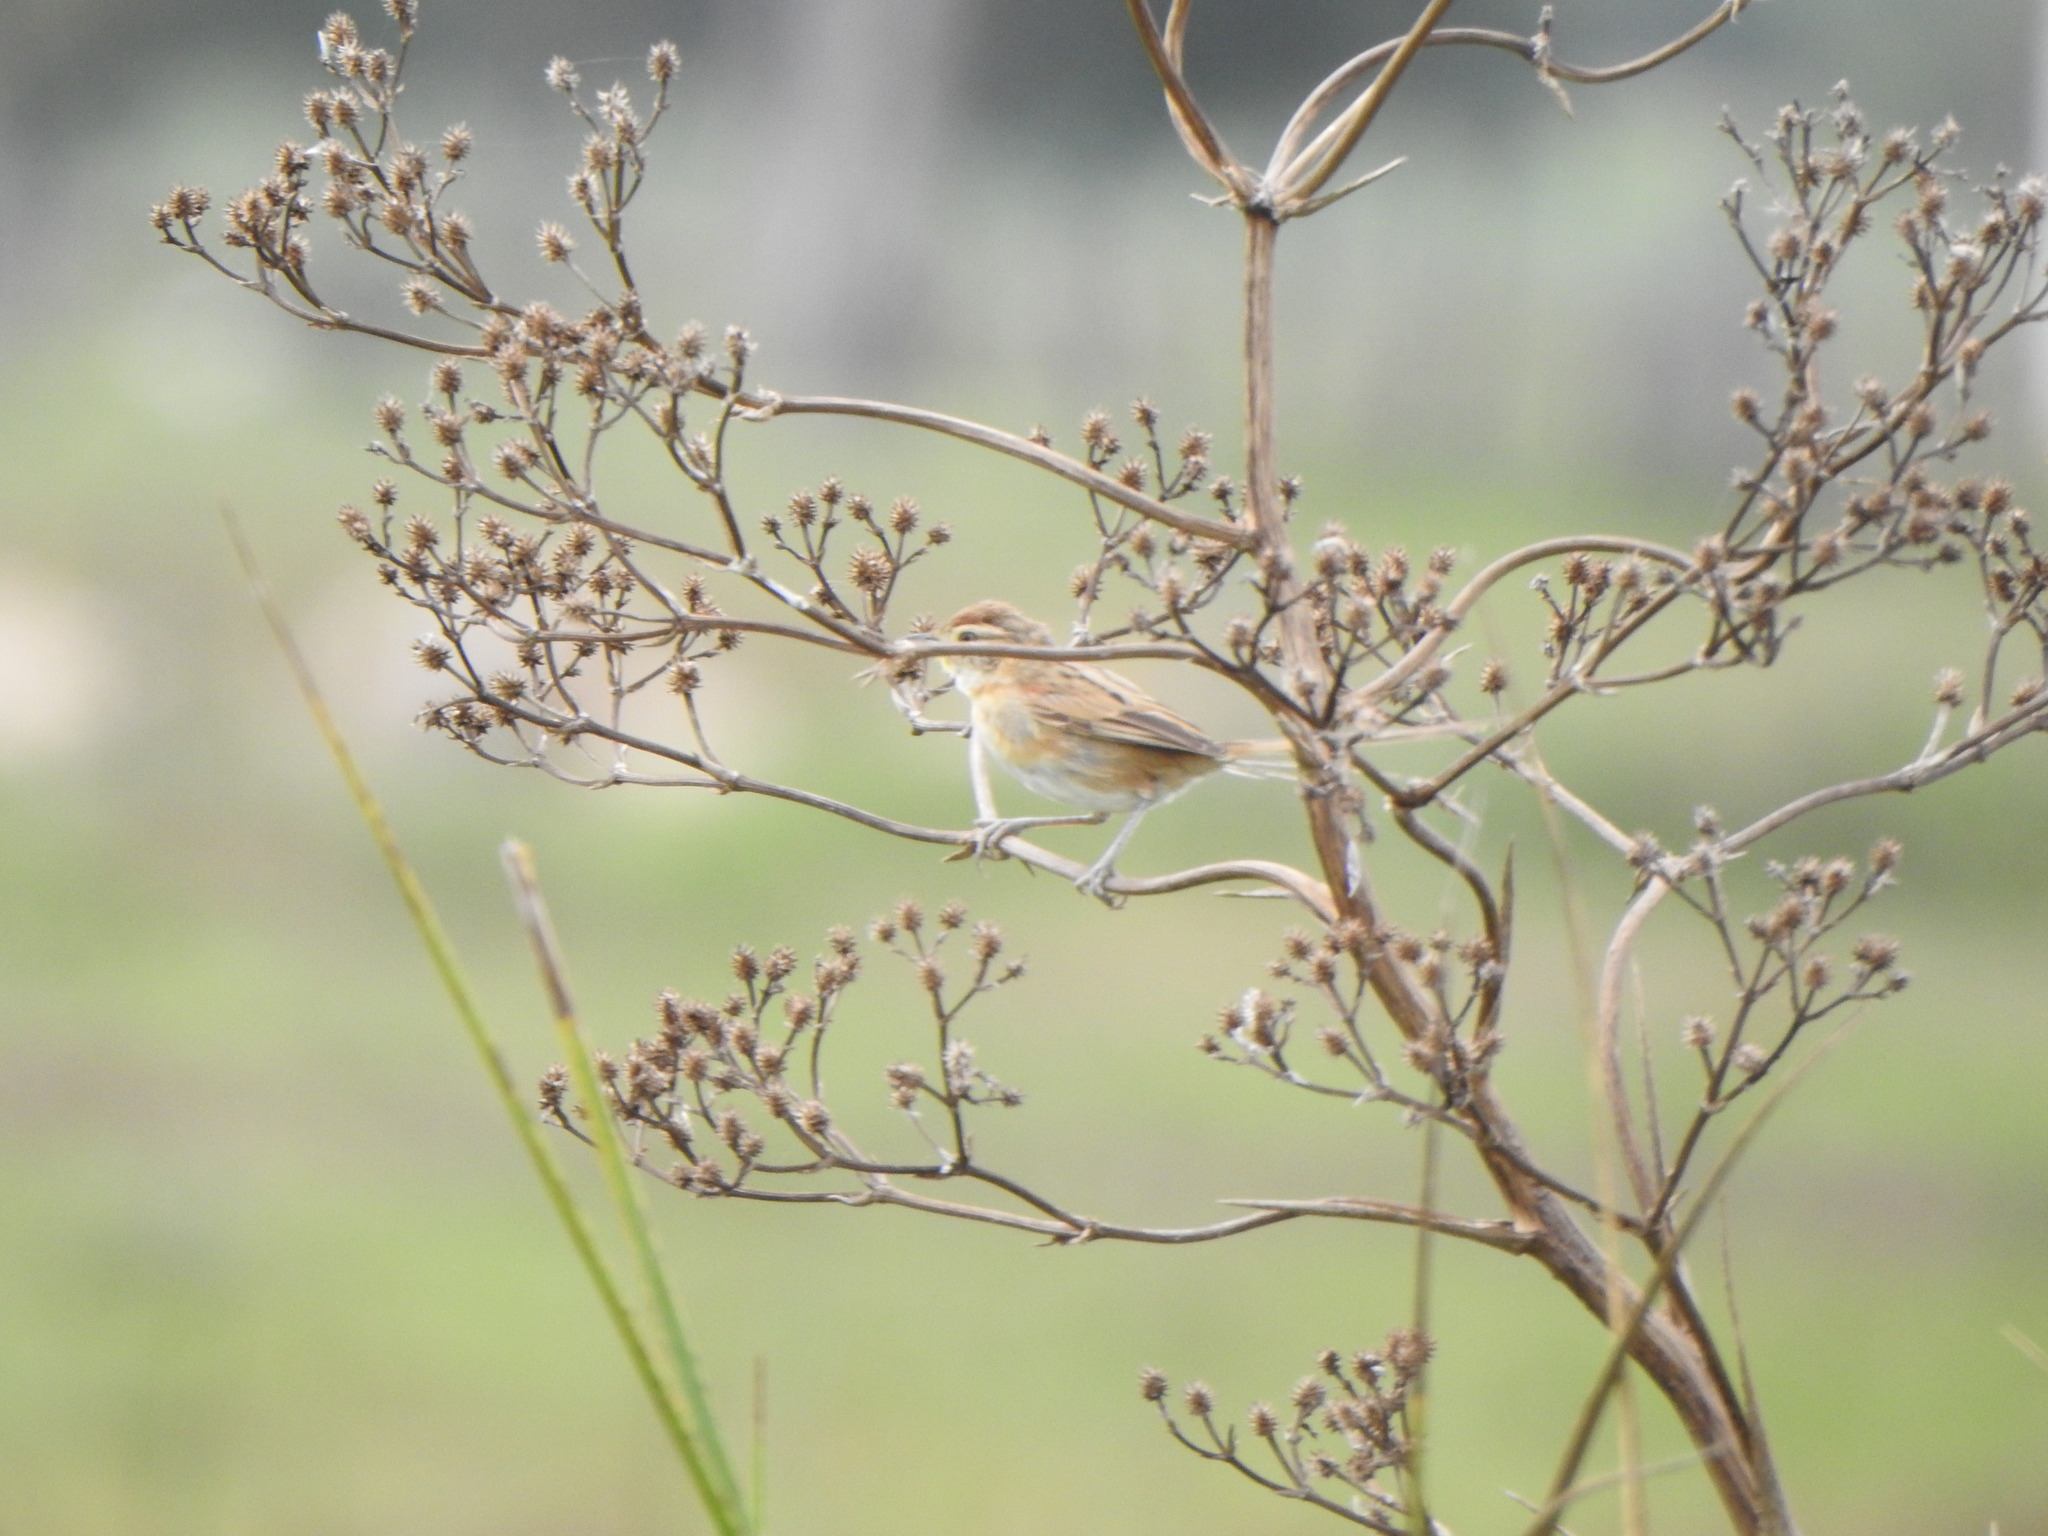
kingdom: Animalia
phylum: Chordata
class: Aves
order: Passeriformes
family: Furnariidae
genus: Schoeniophylax
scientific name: Schoeniophylax phryganophilus
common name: Chotoy spinetail
